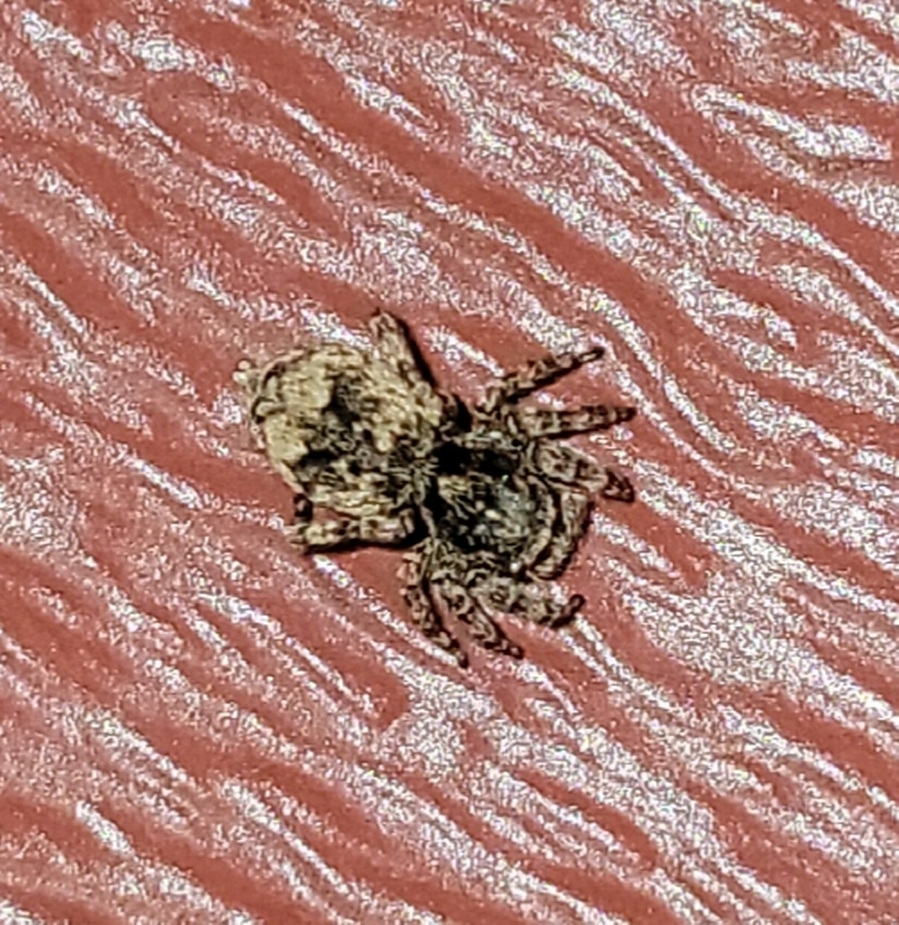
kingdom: Animalia
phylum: Arthropoda
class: Arachnida
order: Araneae
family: Salticidae
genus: Attulus
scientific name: Attulus fasciger
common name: Asiatic wall jumping spider
